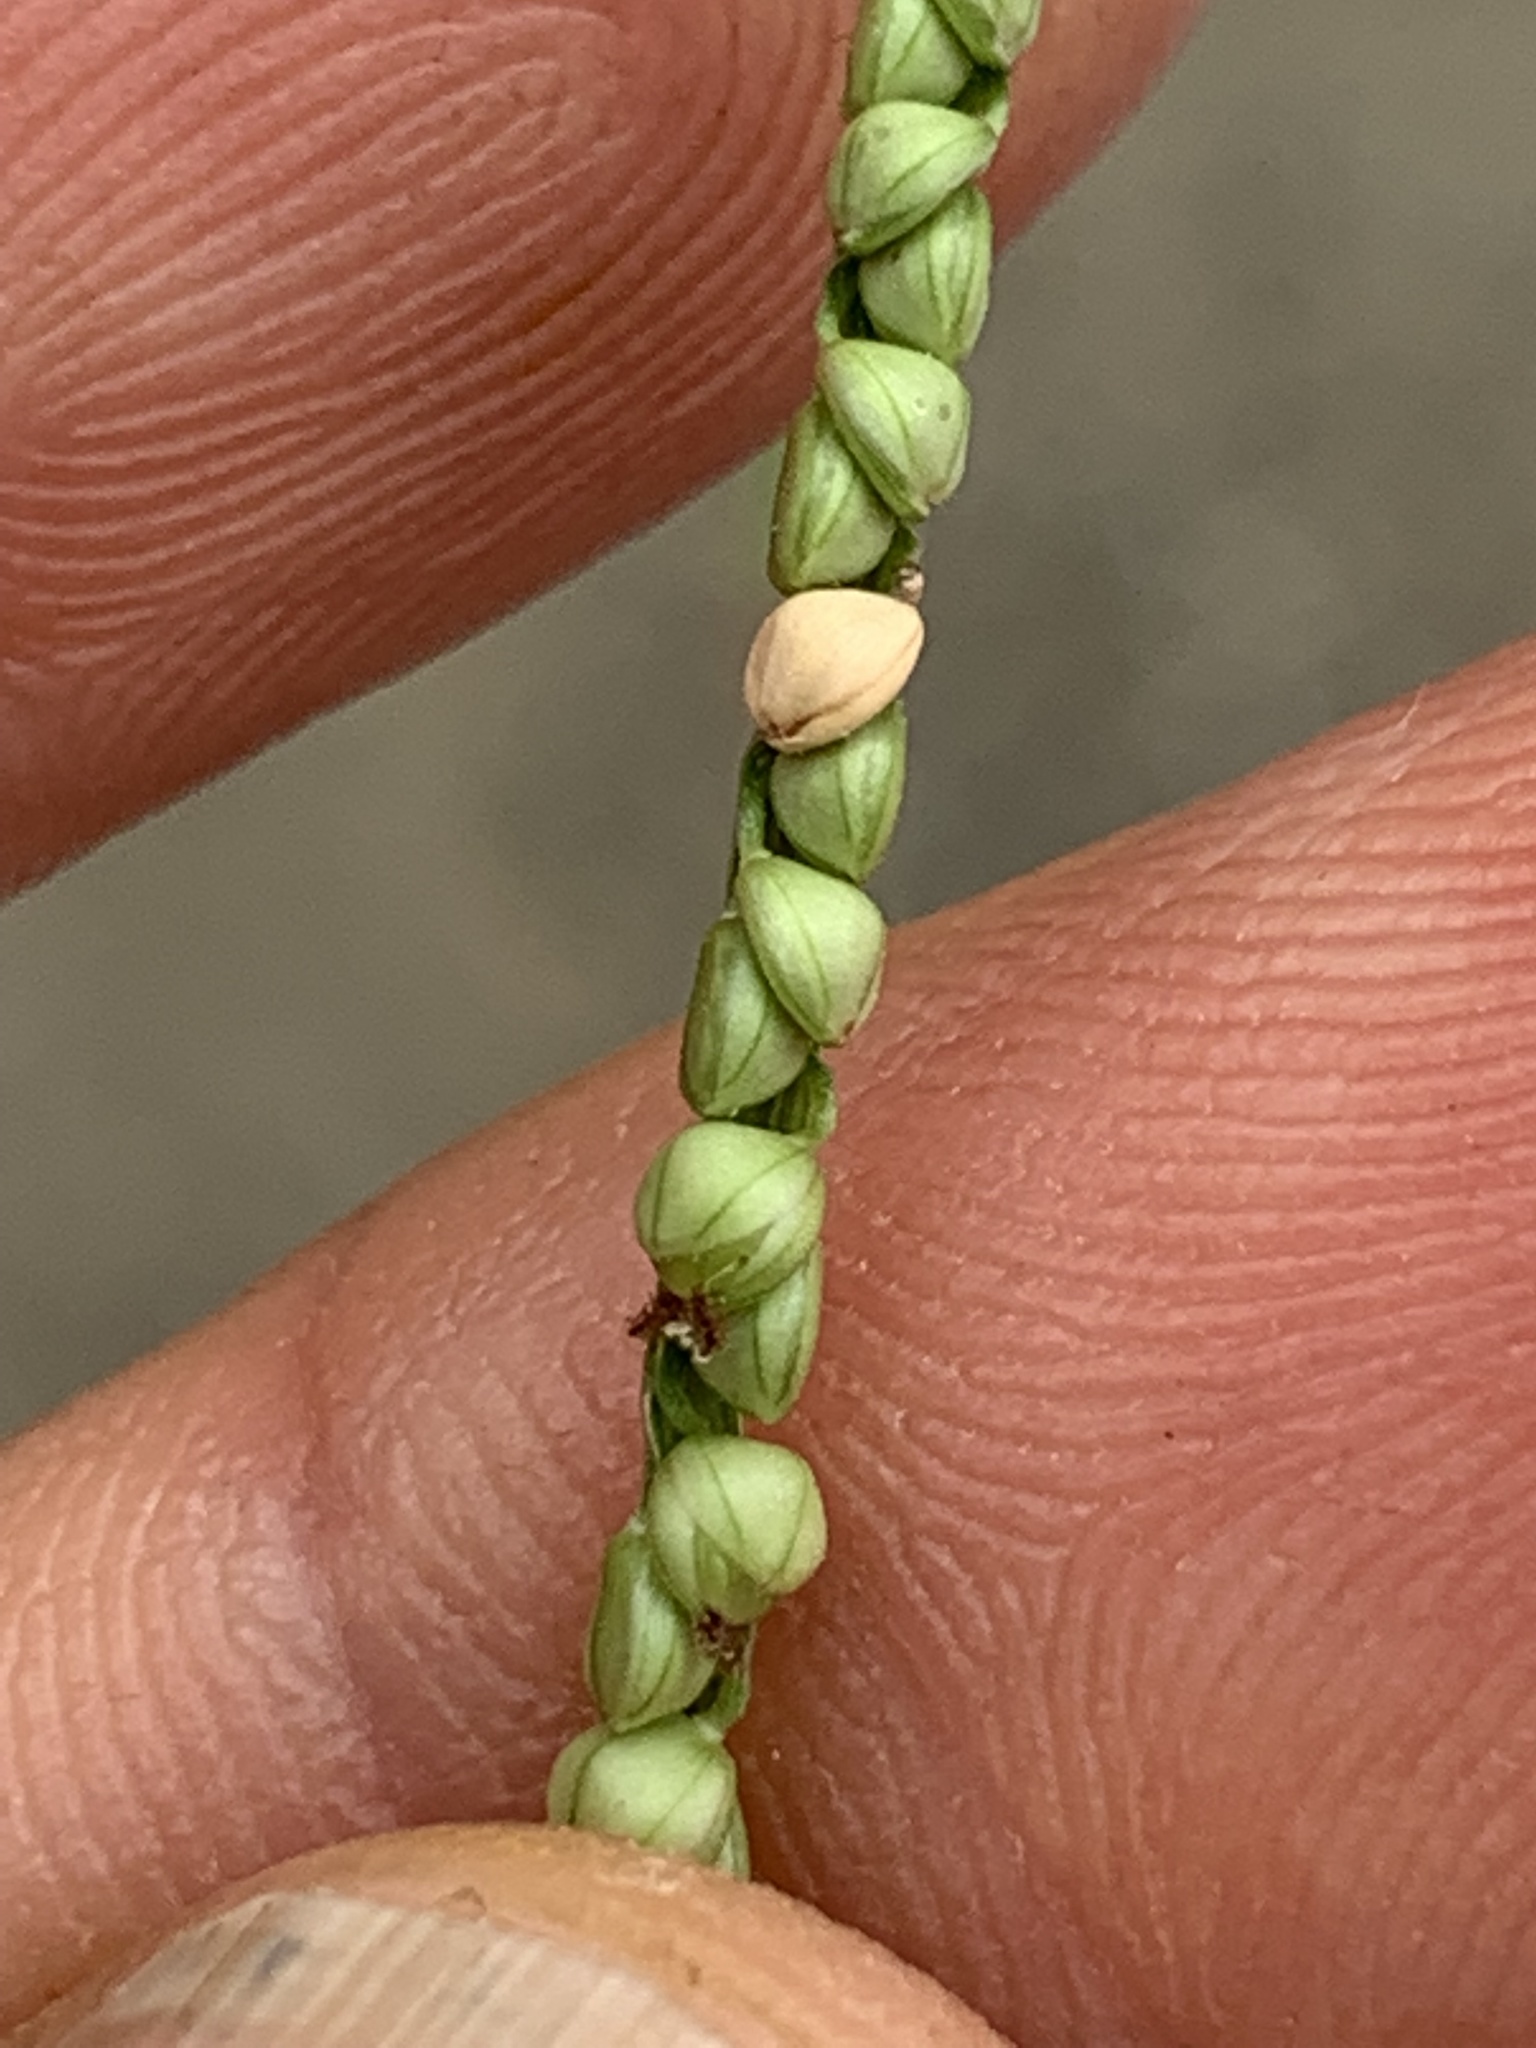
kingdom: Plantae
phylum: Tracheophyta
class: Liliopsida
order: Poales
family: Poaceae
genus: Paspalum
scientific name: Paspalum setaceum
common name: Slender paspalum
